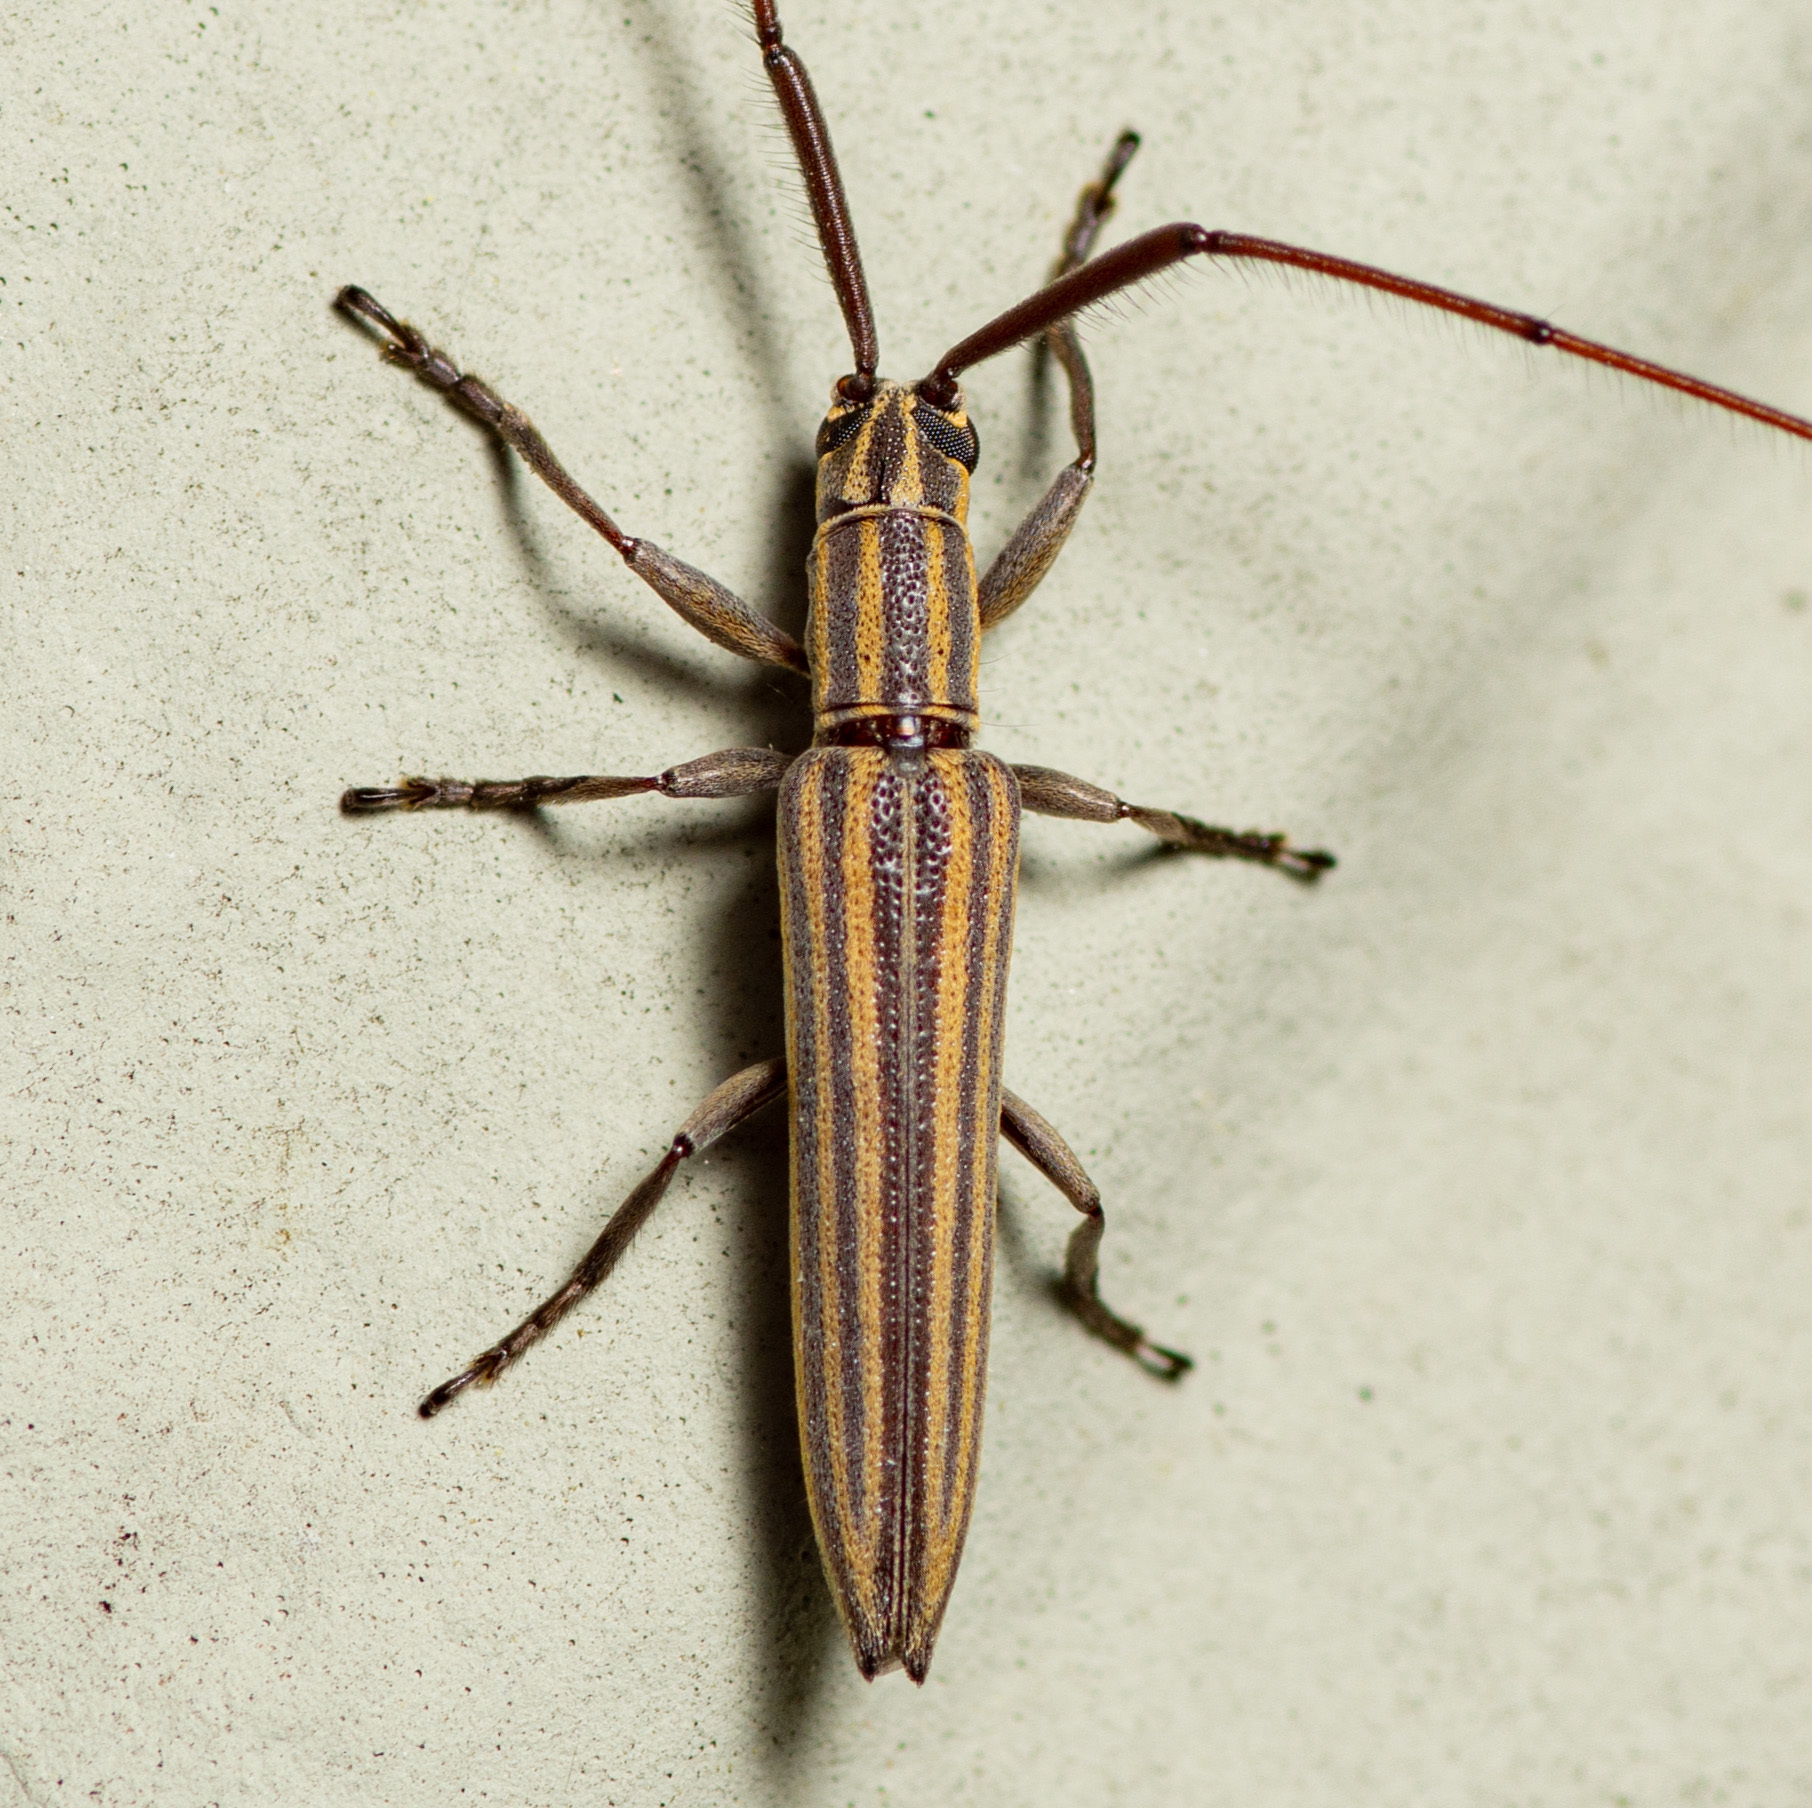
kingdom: Animalia
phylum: Arthropoda
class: Insecta
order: Coleoptera
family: Cerambycidae
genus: Hippopsis
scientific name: Hippopsis
